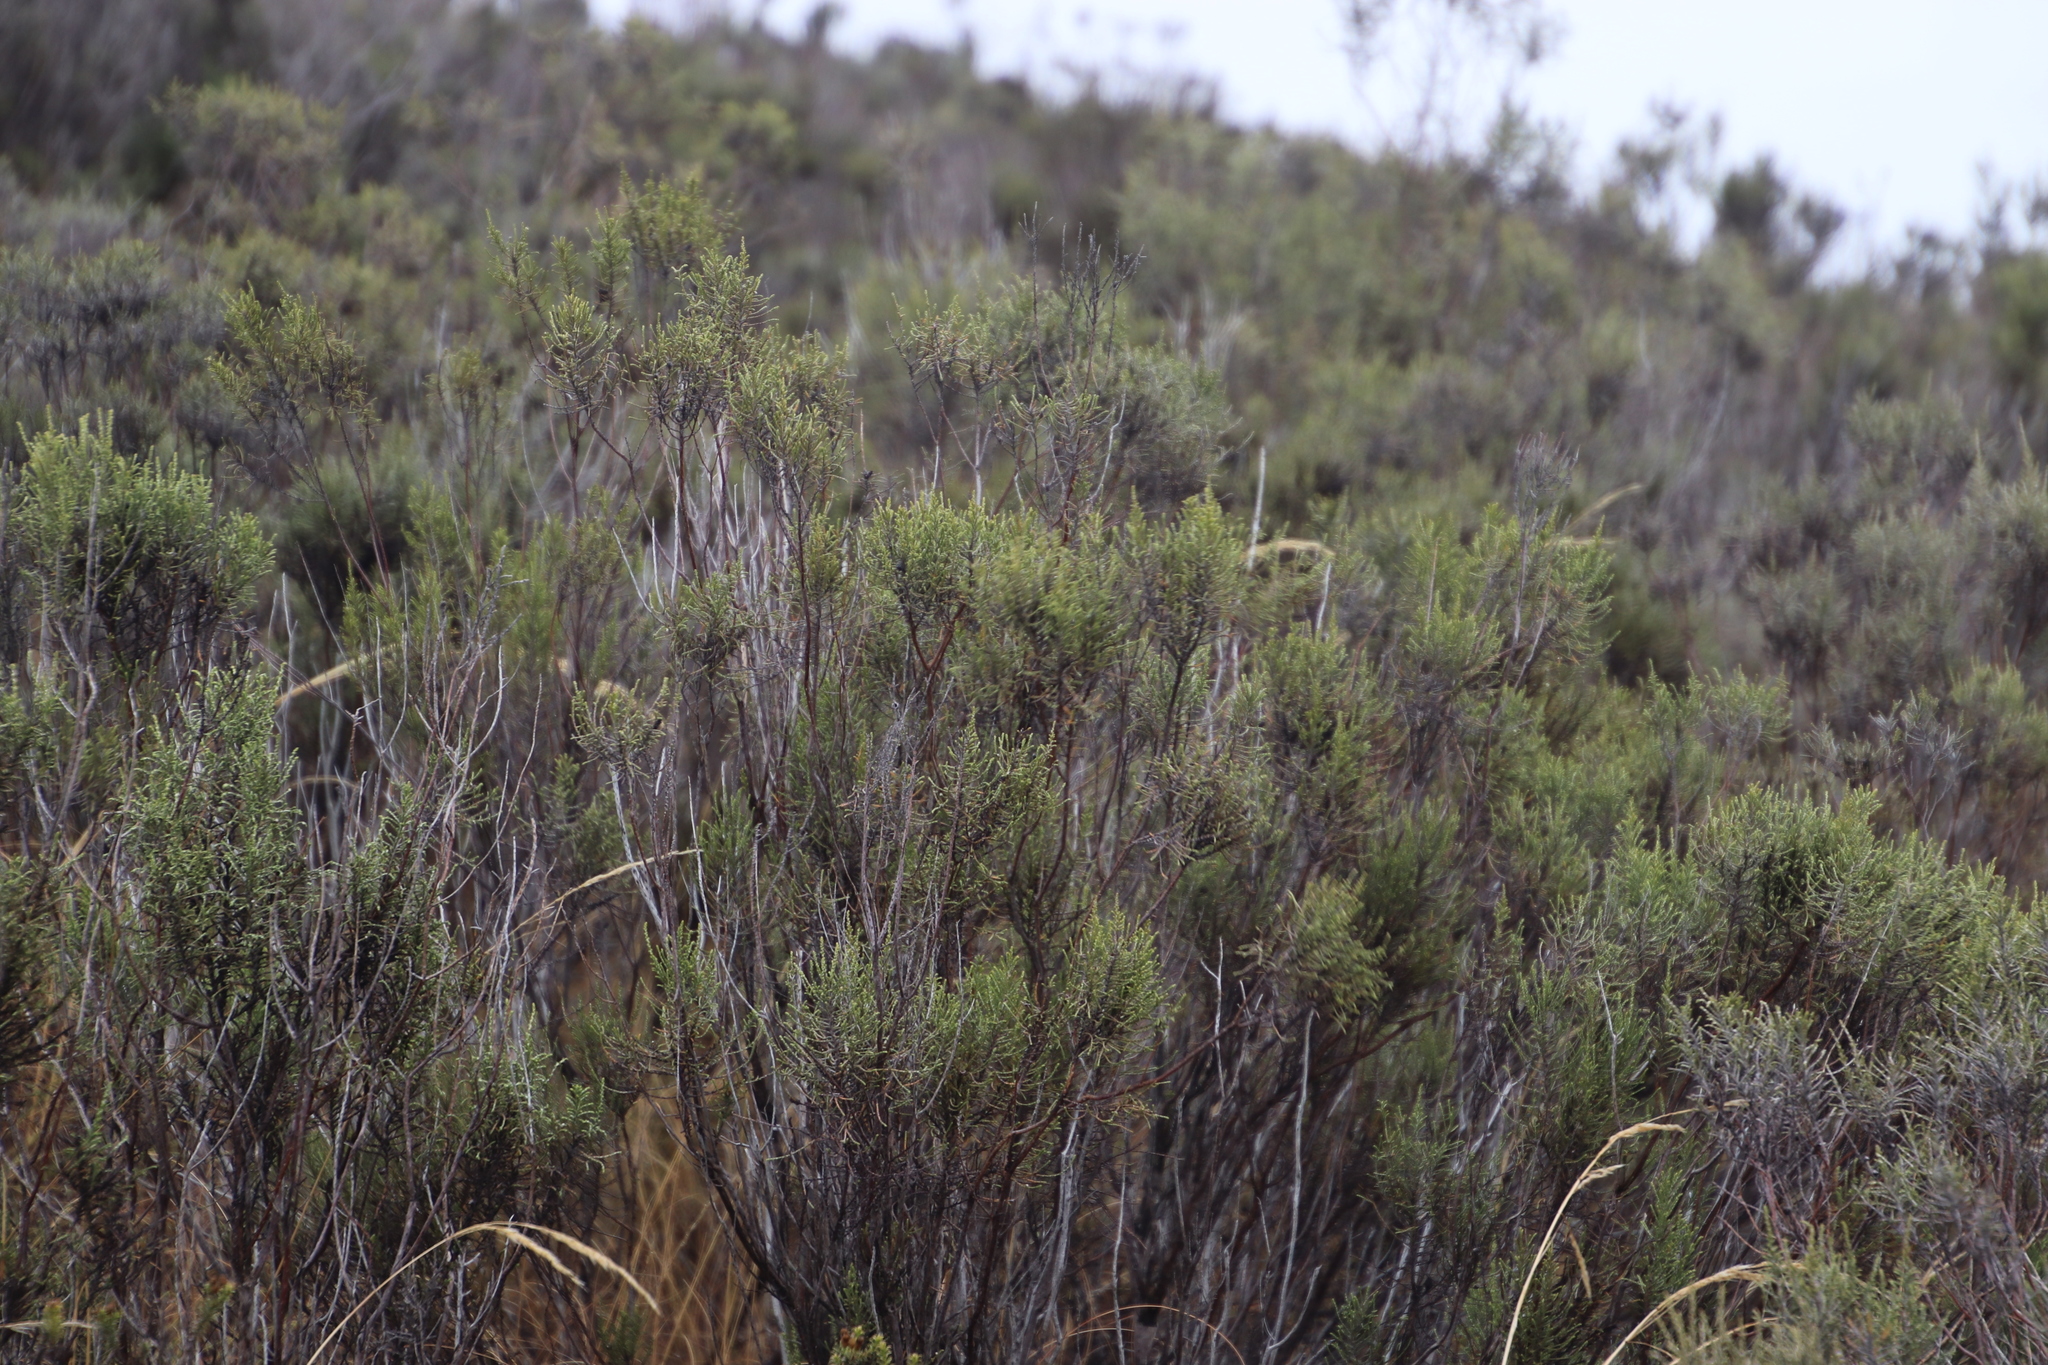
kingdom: Plantae
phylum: Tracheophyta
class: Magnoliopsida
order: Asterales
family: Asteraceae
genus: Dicerothamnus
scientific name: Dicerothamnus rhinocerotis
